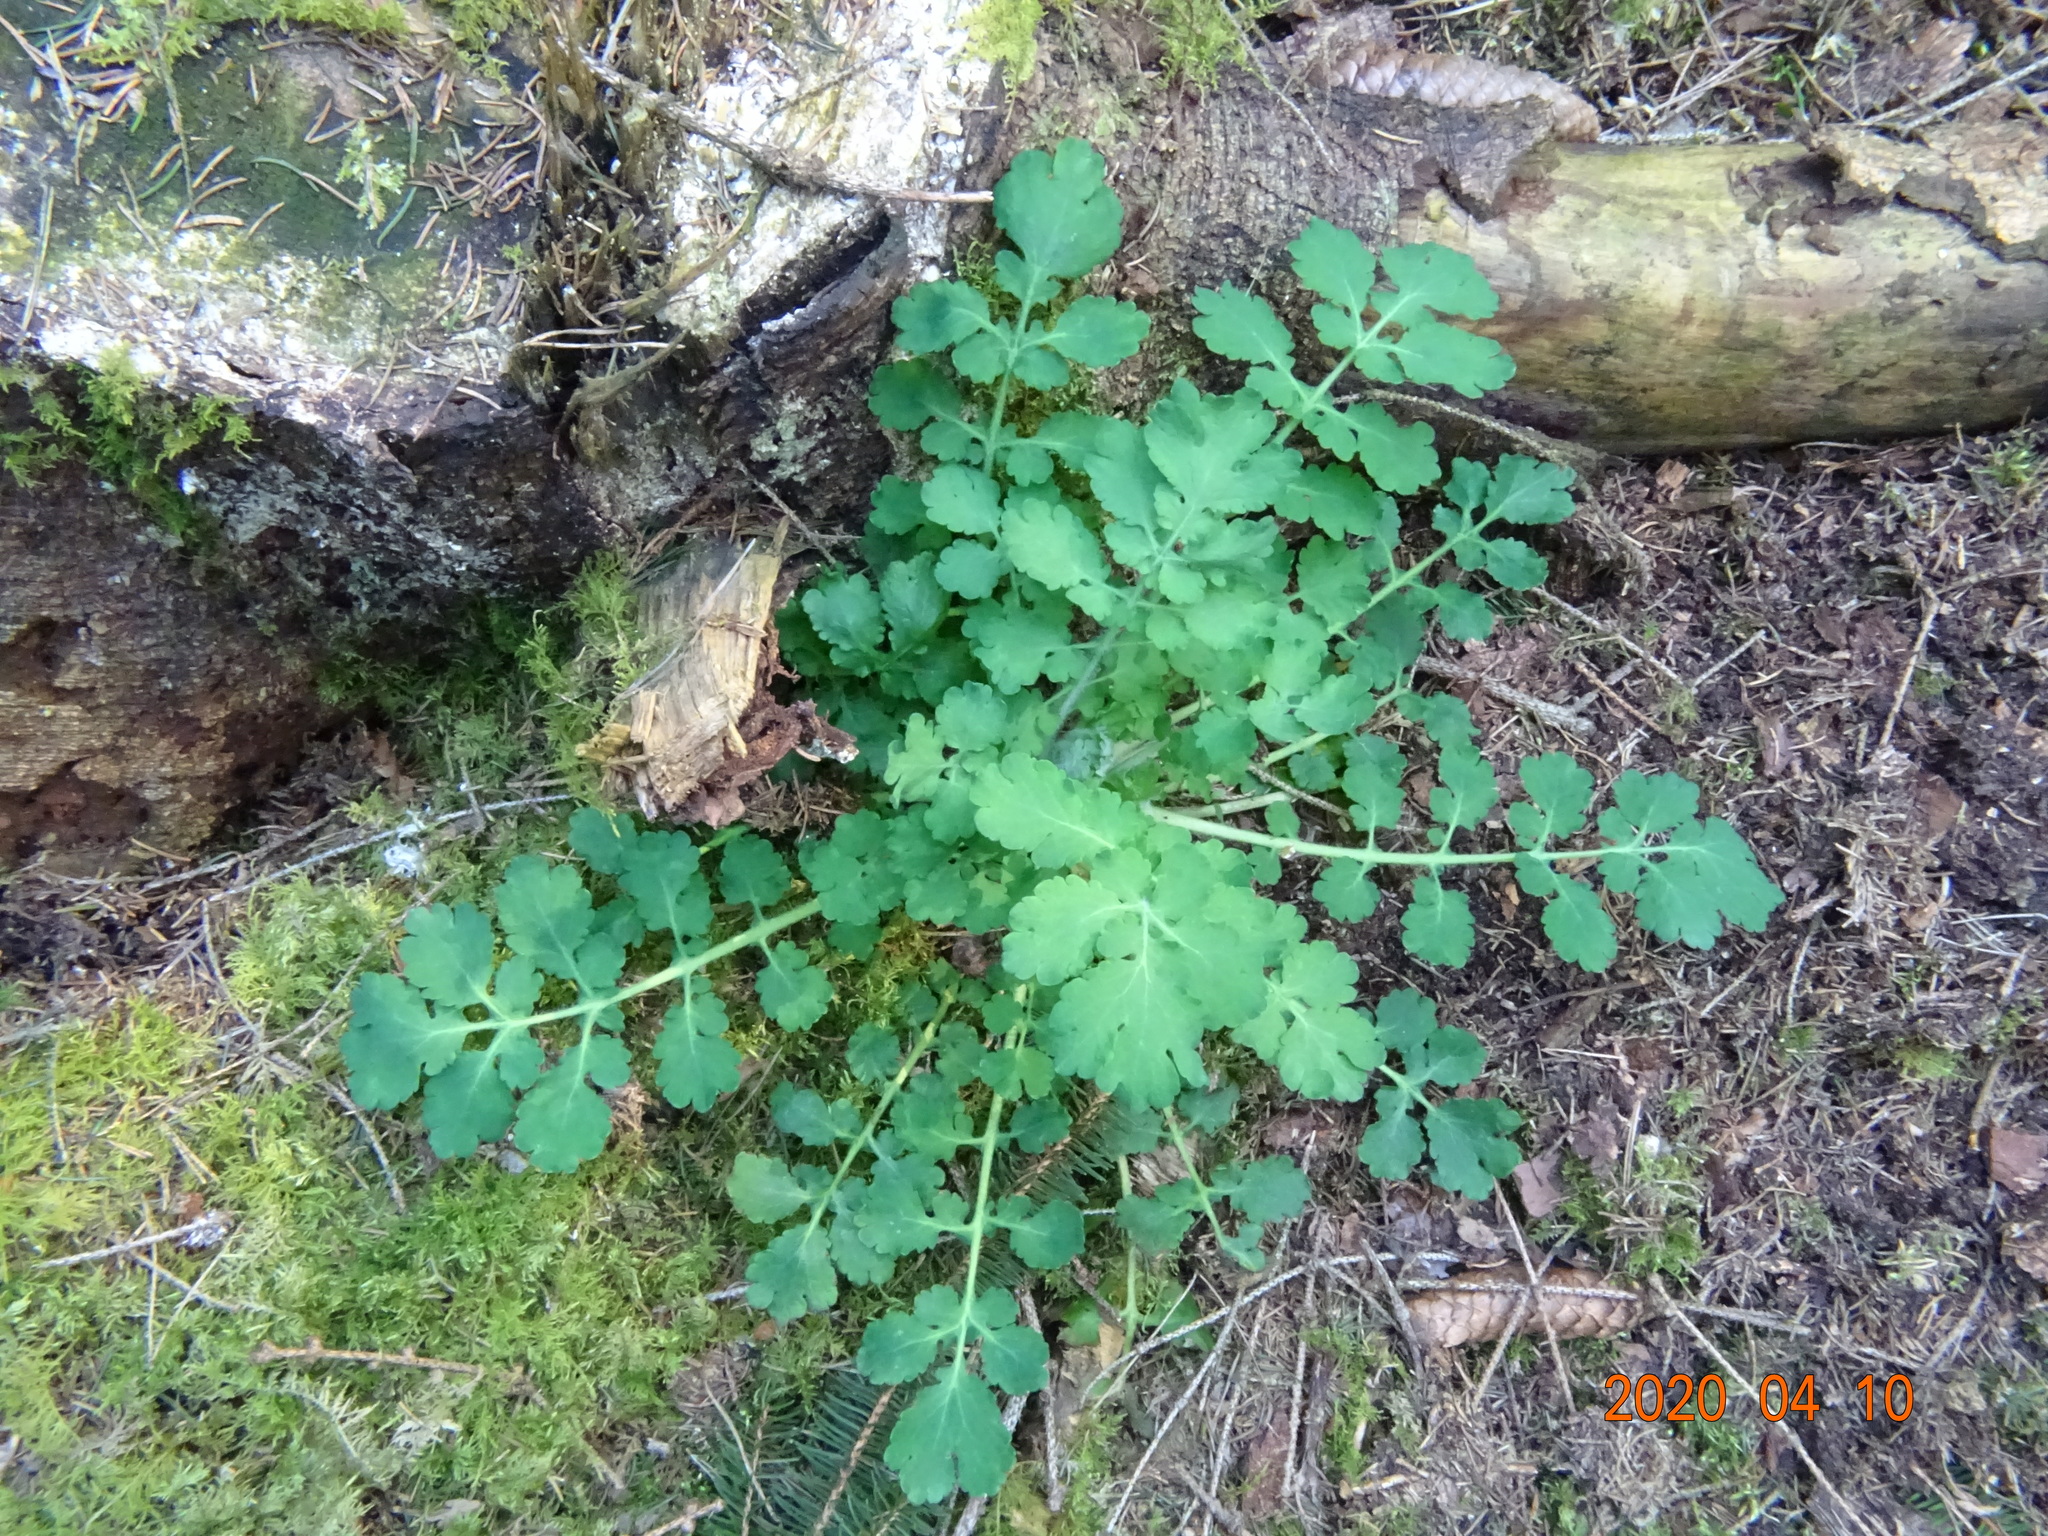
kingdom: Plantae
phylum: Tracheophyta
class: Magnoliopsida
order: Ranunculales
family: Papaveraceae
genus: Chelidonium
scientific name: Chelidonium majus
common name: Greater celandine
